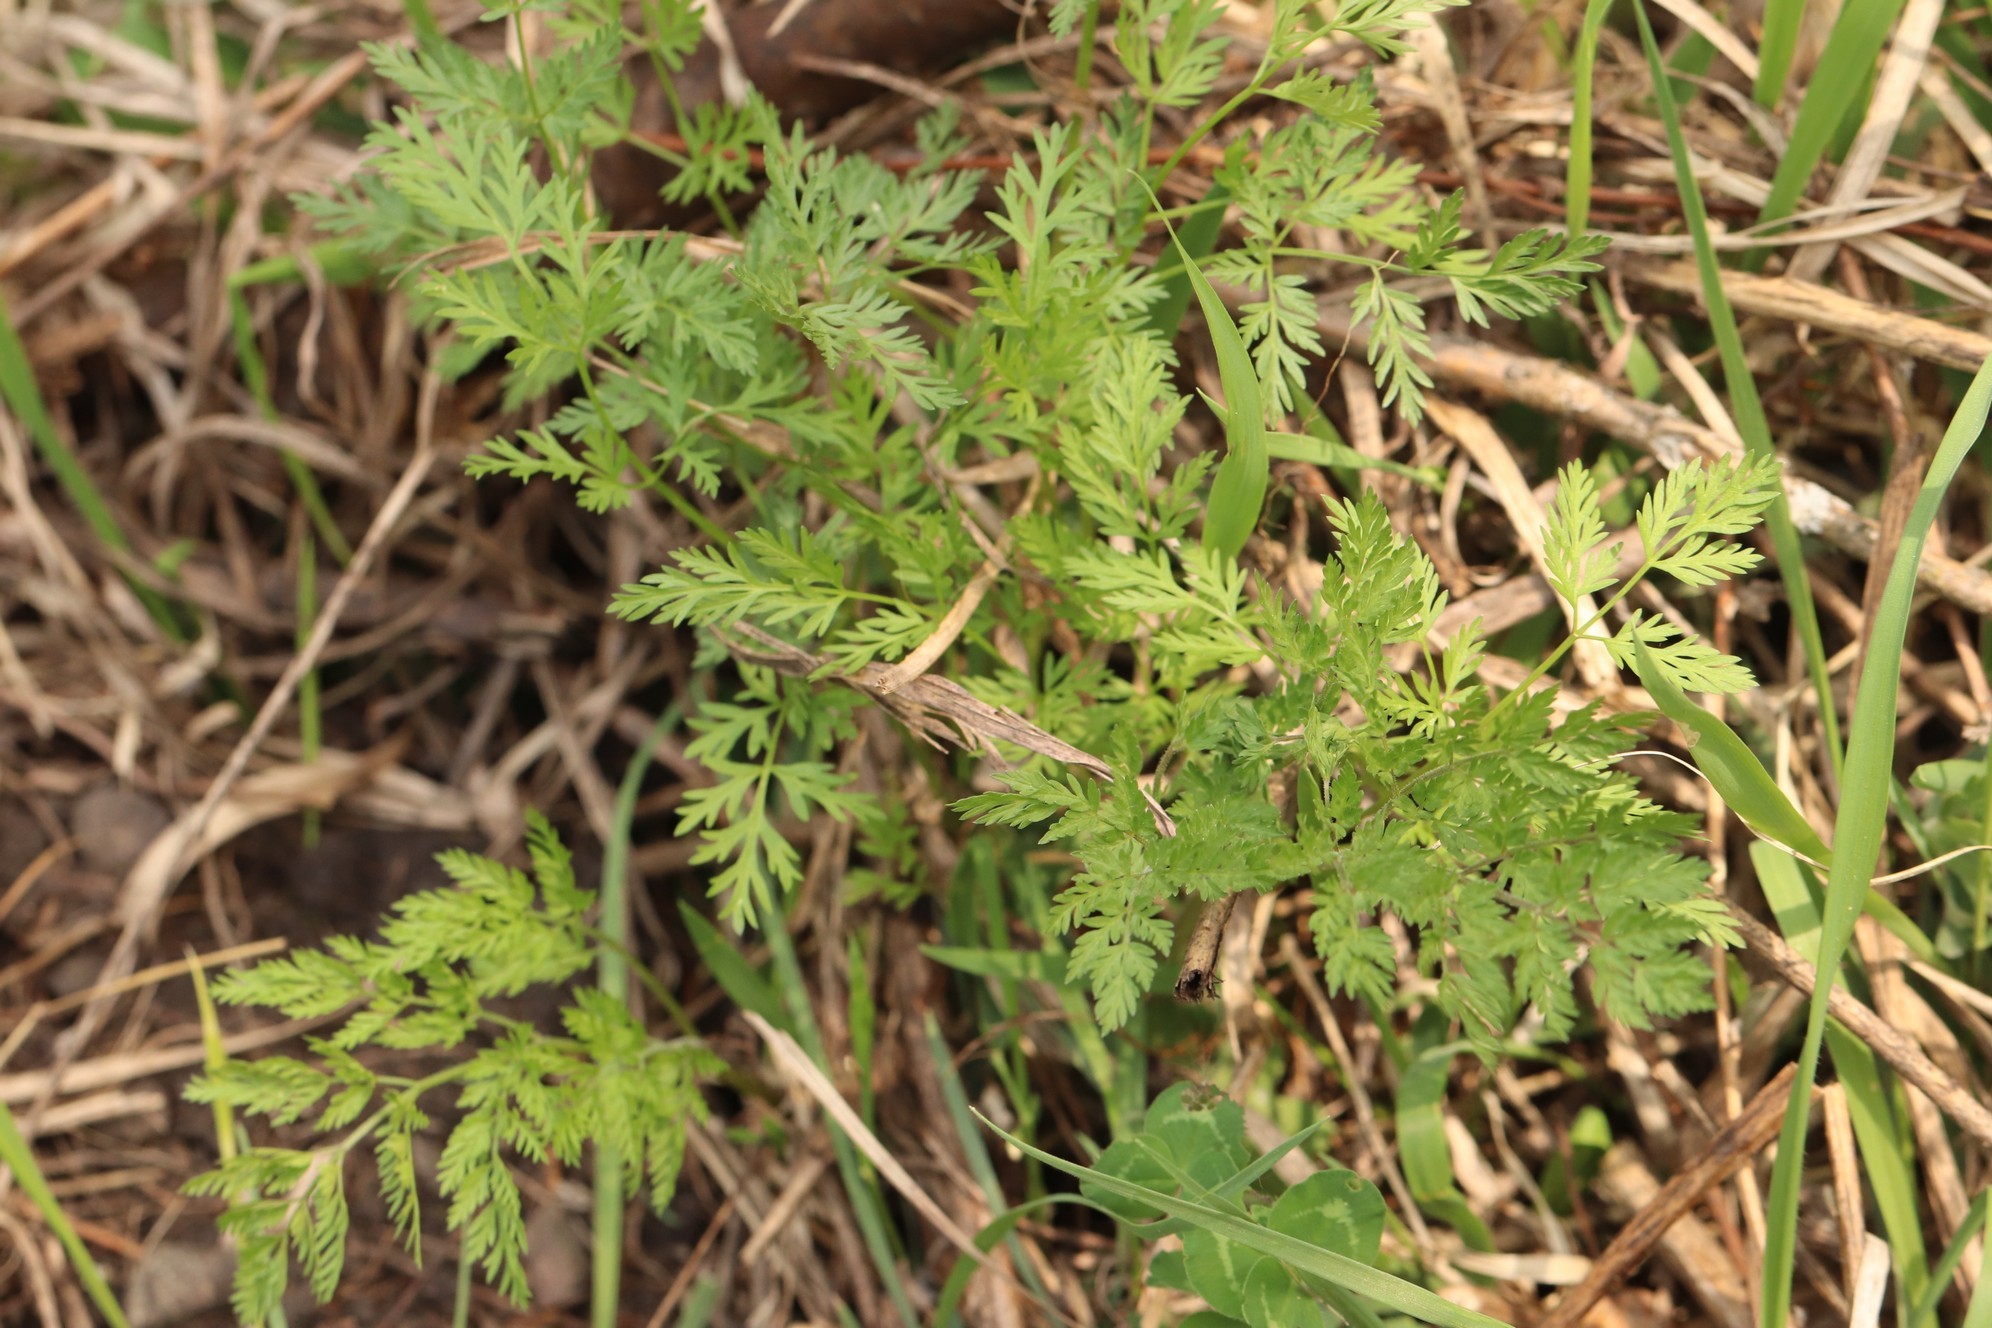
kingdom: Plantae
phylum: Tracheophyta
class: Magnoliopsida
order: Apiales
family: Apiaceae
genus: Anthriscus
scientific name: Anthriscus sylvestris
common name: Cow parsley
